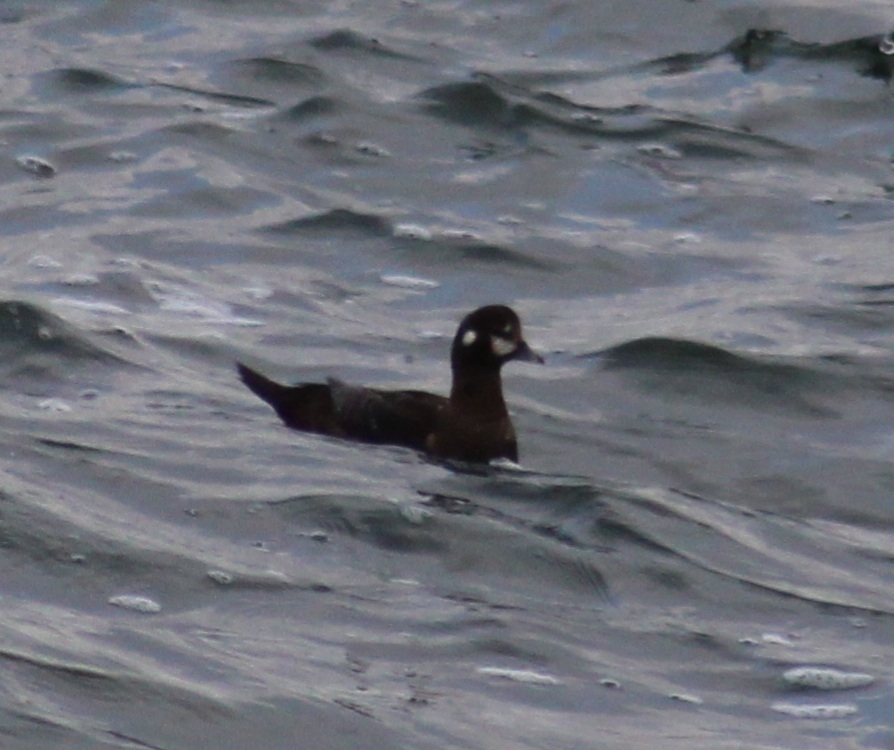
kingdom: Animalia
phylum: Chordata
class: Aves
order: Anseriformes
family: Anatidae
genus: Histrionicus
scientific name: Histrionicus histrionicus
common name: Harlequin duck
